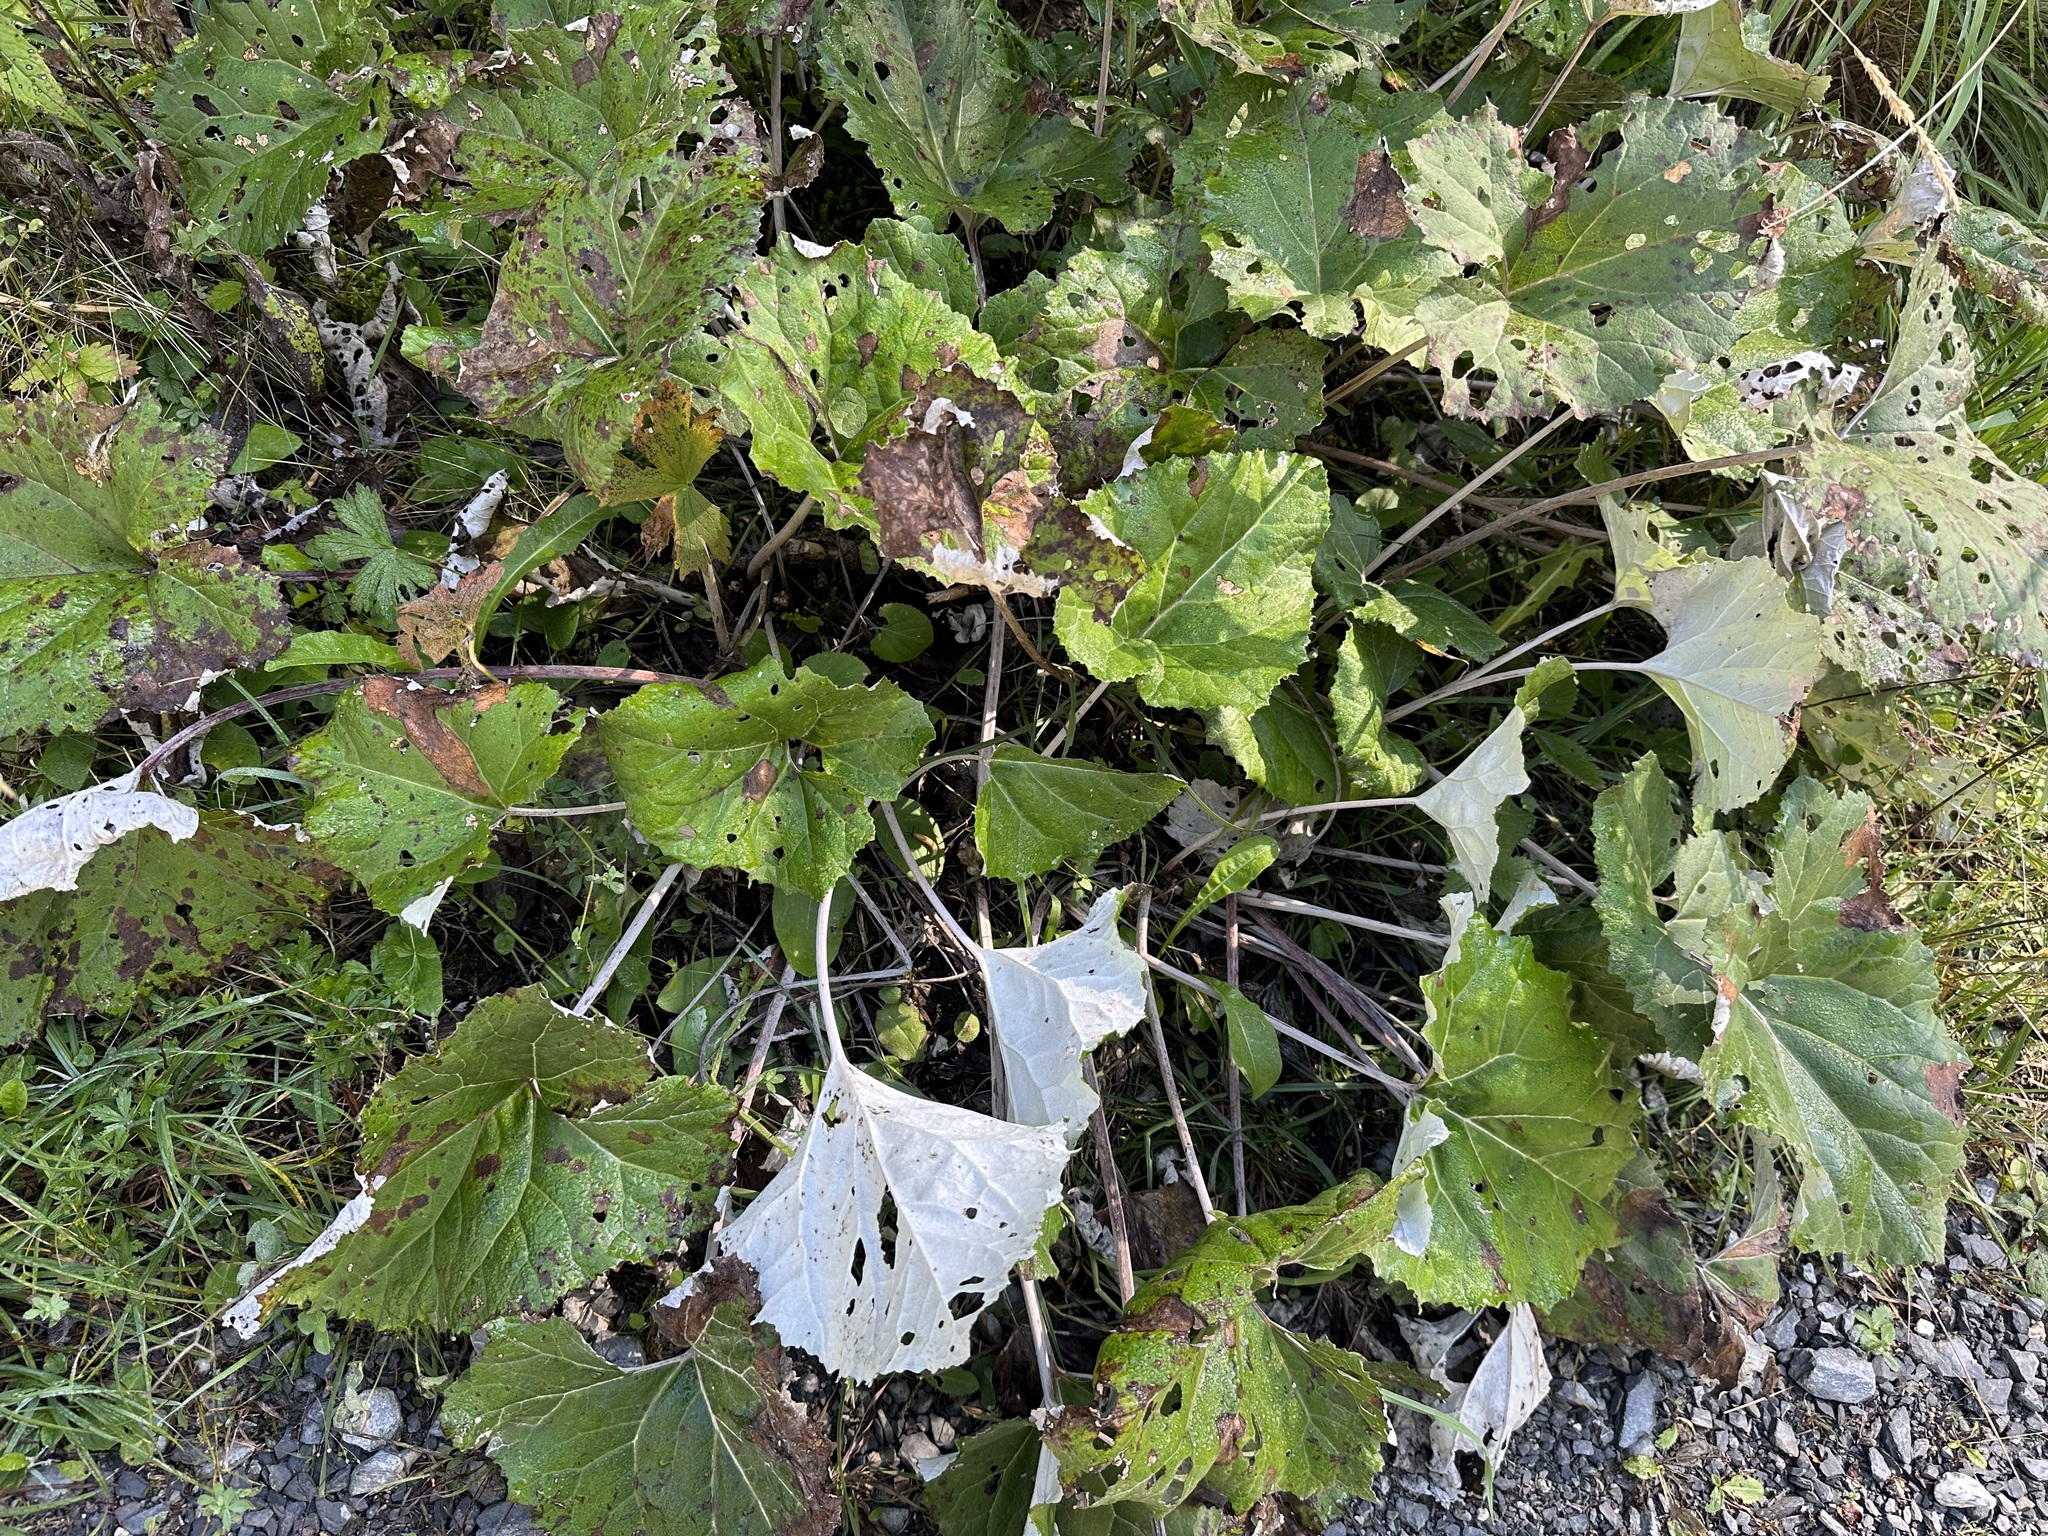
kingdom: Plantae
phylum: Tracheophyta
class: Magnoliopsida
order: Asterales
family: Asteraceae
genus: Petasites
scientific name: Petasites paradoxus
